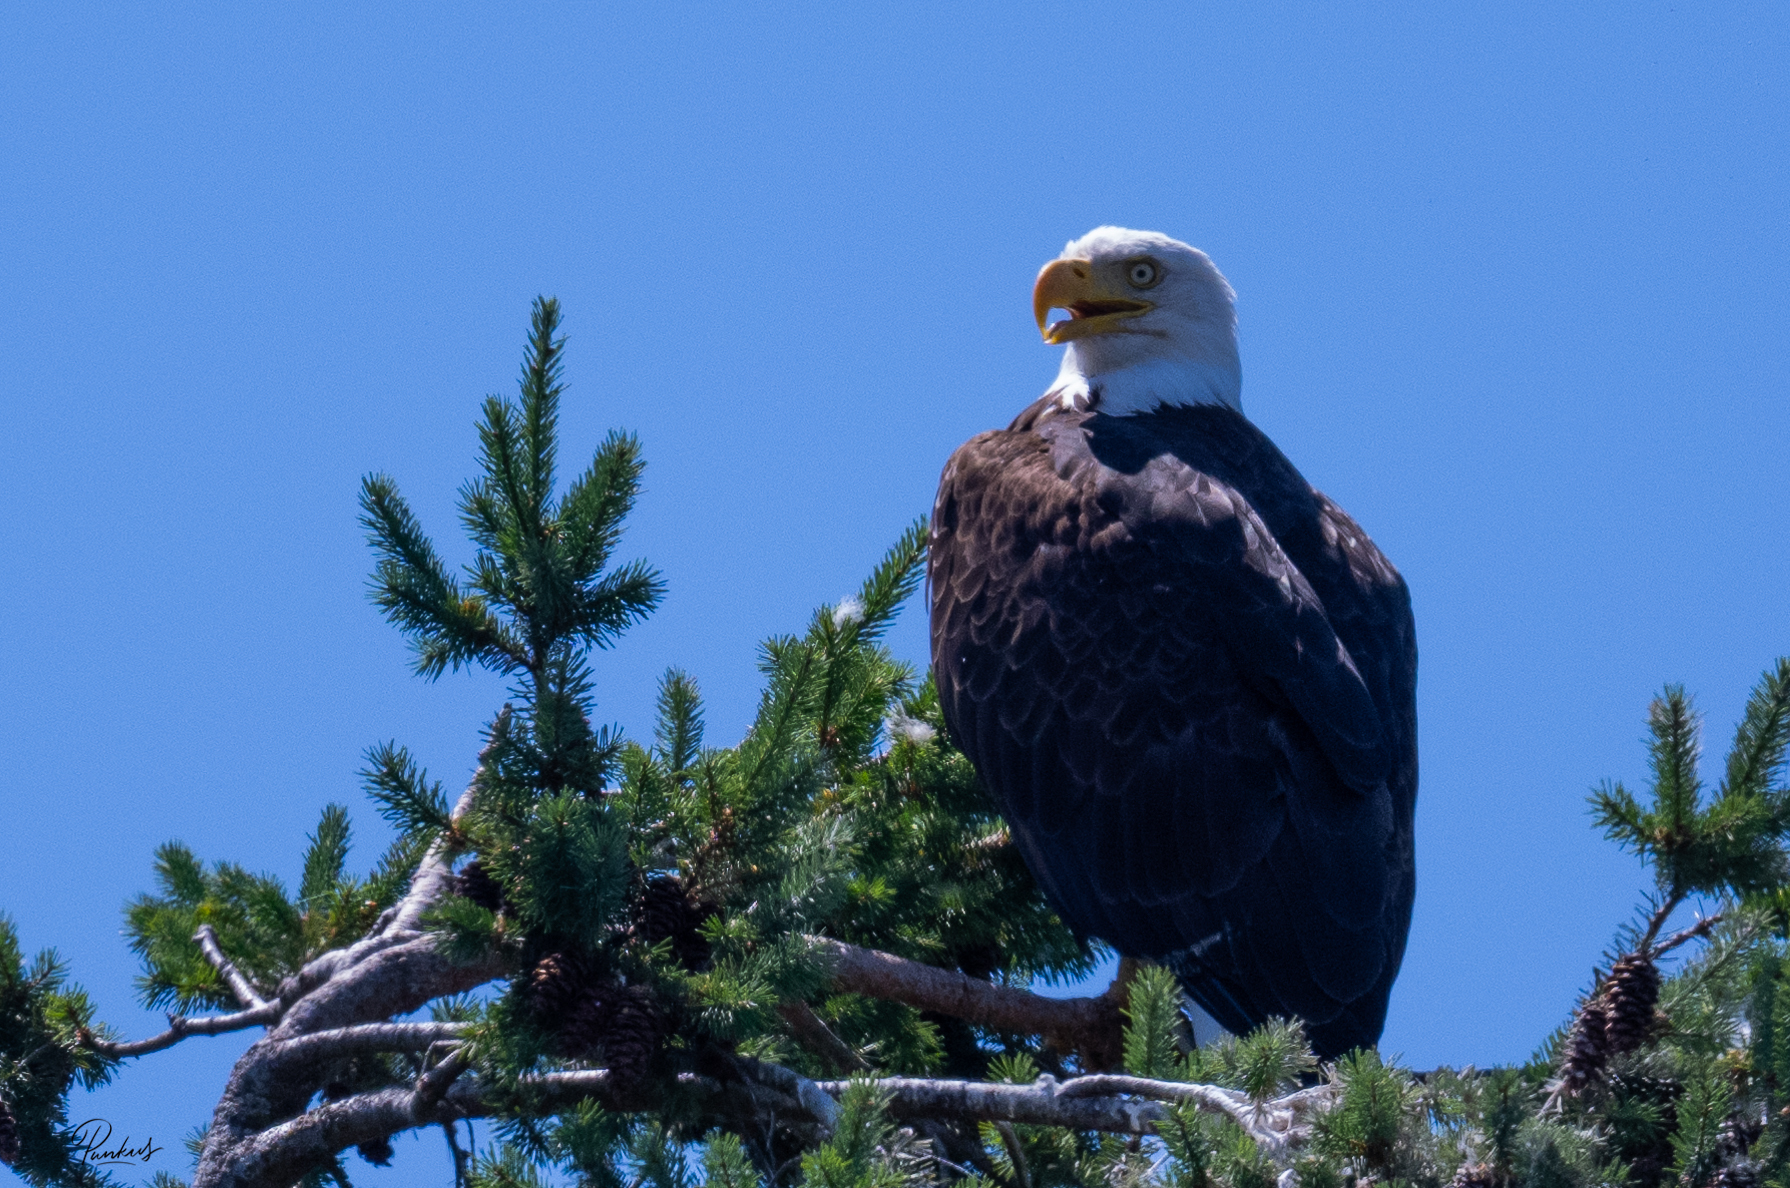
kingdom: Animalia
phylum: Chordata
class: Aves
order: Accipitriformes
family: Accipitridae
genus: Haliaeetus
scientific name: Haliaeetus leucocephalus
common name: Bald eagle
